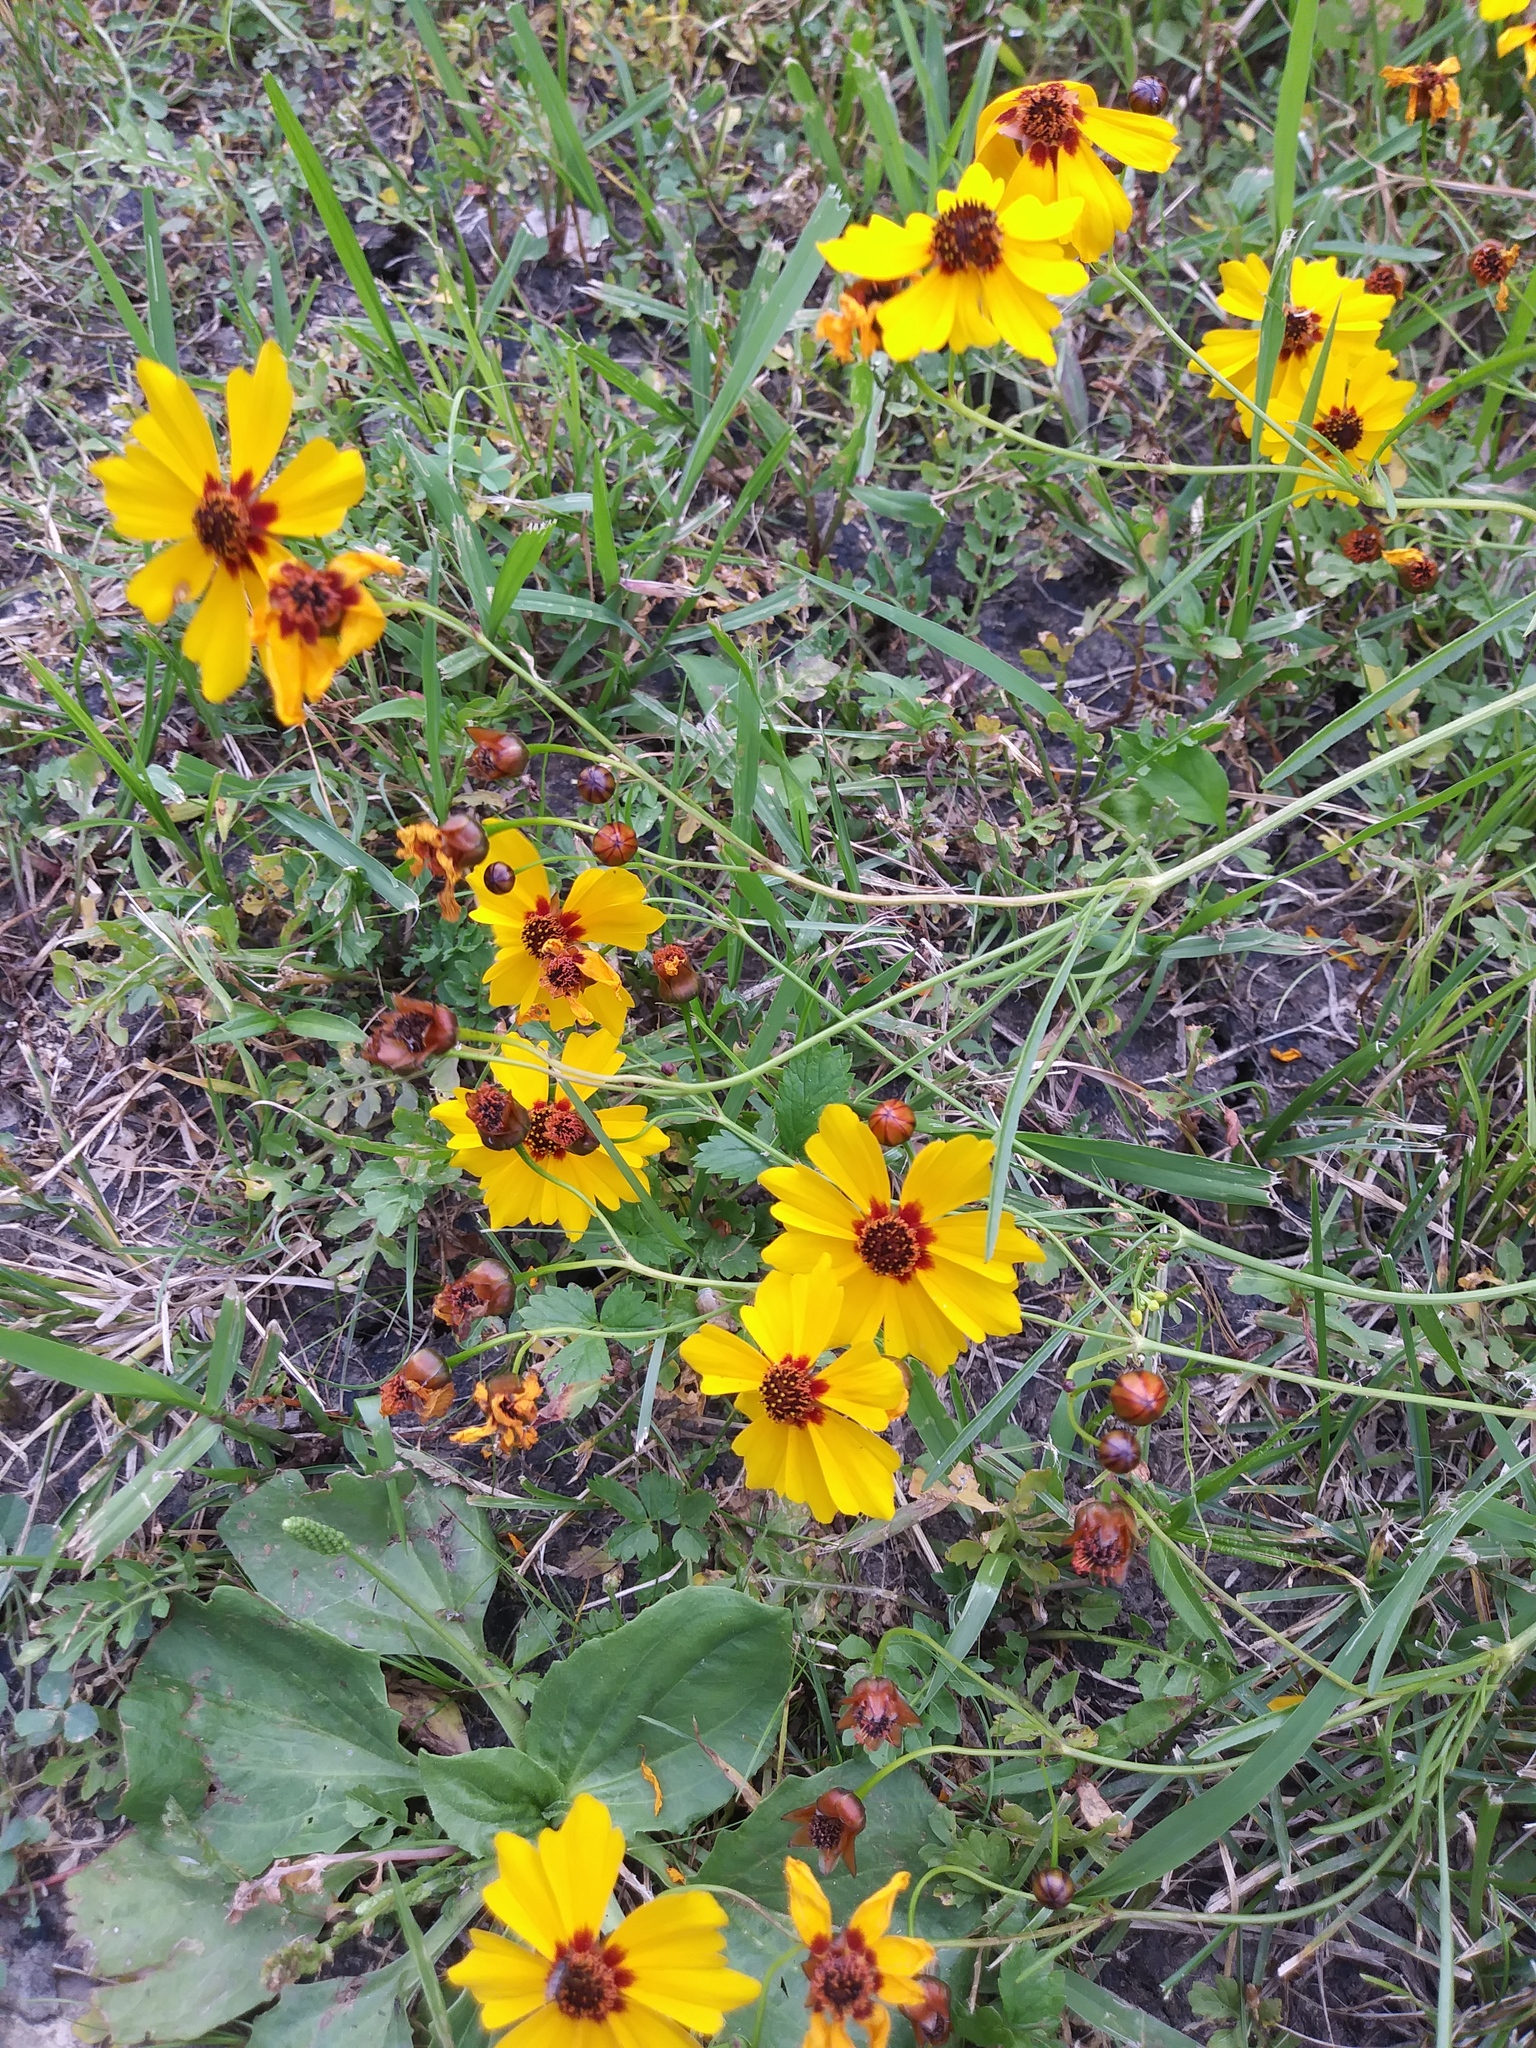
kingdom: Plantae
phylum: Tracheophyta
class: Magnoliopsida
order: Asterales
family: Asteraceae
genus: Coreopsis
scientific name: Coreopsis tinctoria
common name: Garden tickseed
